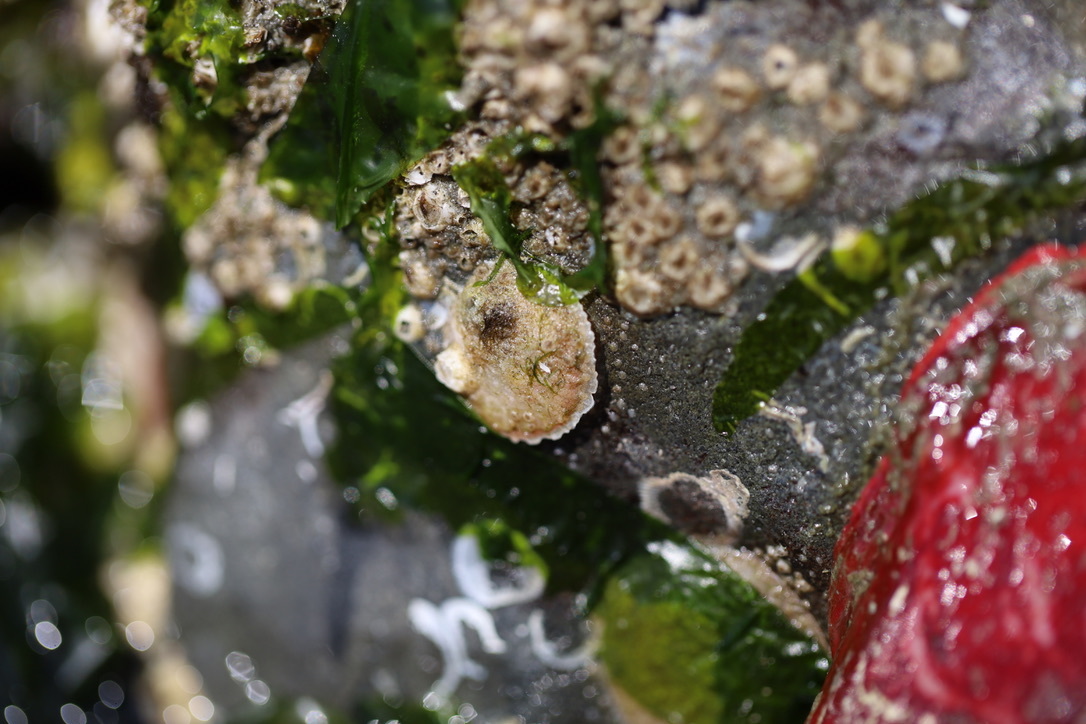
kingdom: Animalia
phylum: Mollusca
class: Bivalvia
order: Pectinida
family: Anomiidae
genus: Pododesmus
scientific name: Pododesmus macrochisma
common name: Alaska jingle
